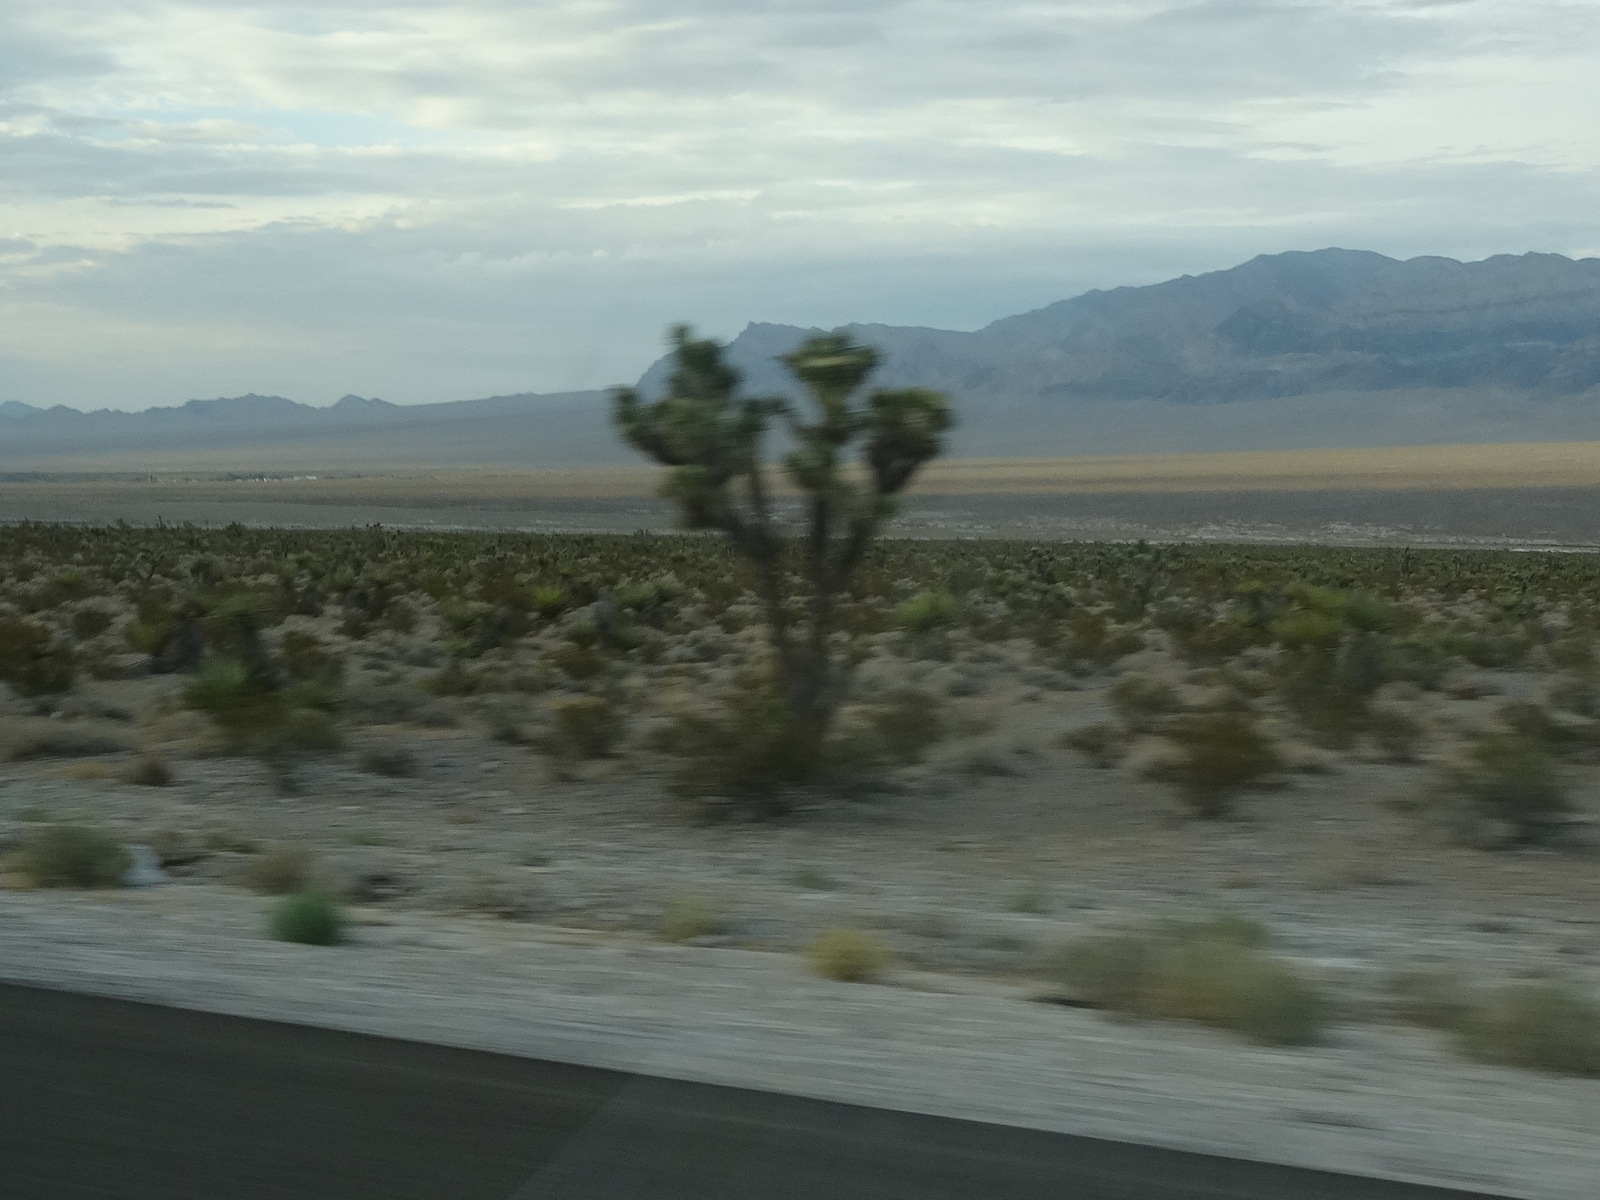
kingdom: Plantae
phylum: Tracheophyta
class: Liliopsida
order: Asparagales
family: Asparagaceae
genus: Yucca
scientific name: Yucca brevifolia
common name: Joshua tree
